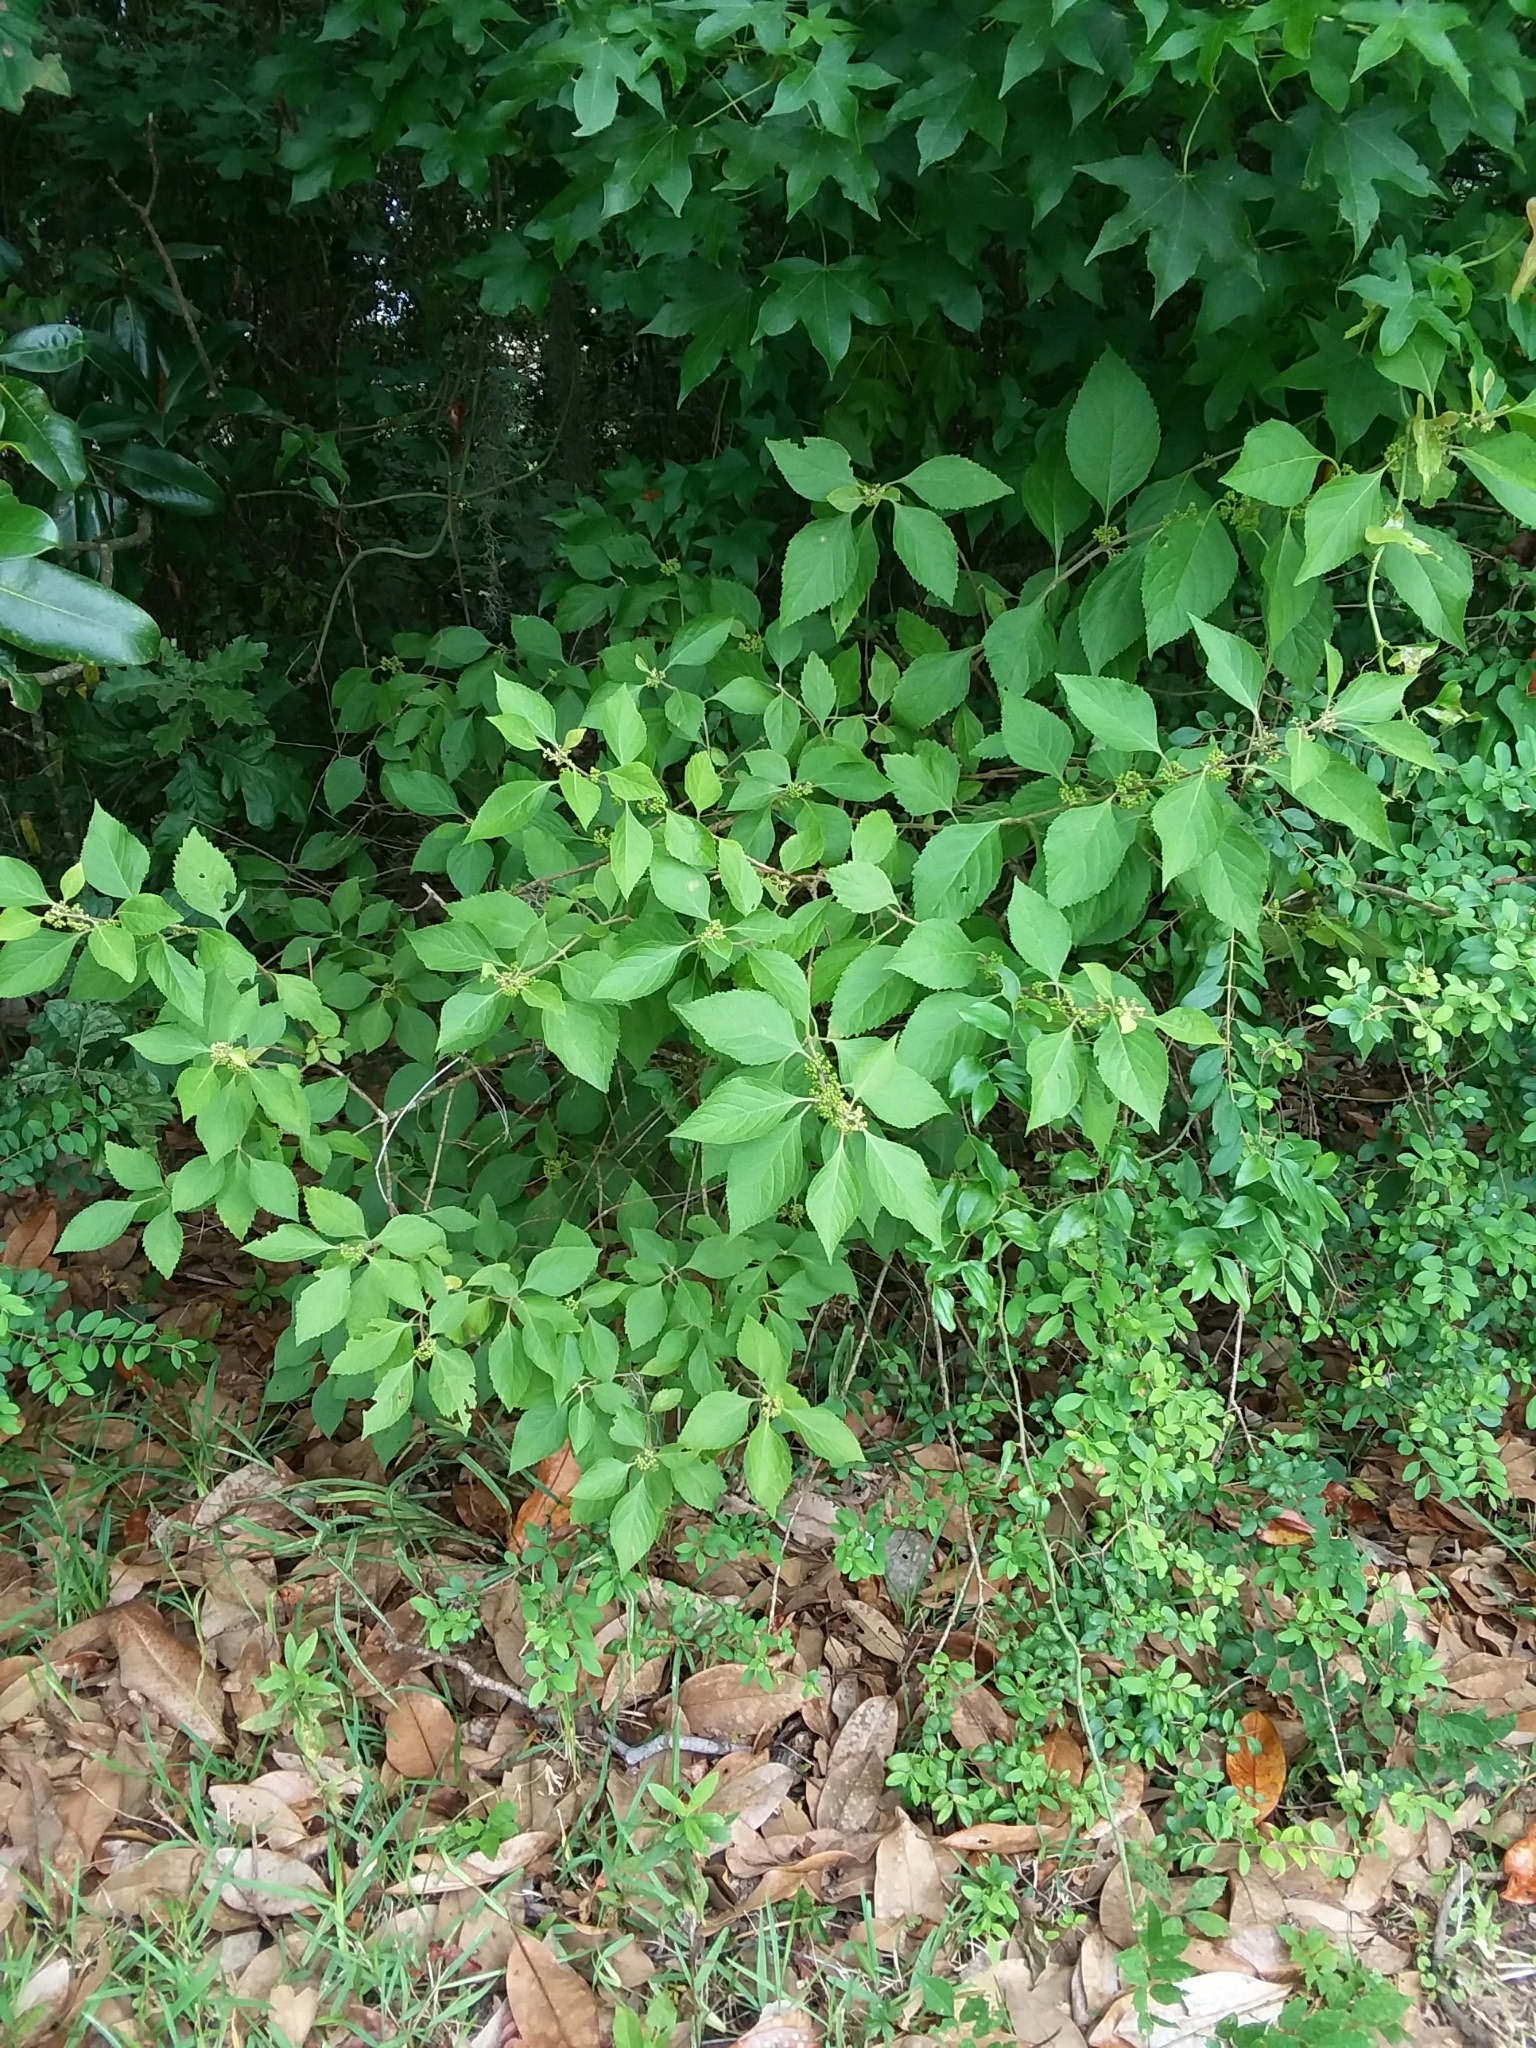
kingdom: Plantae
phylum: Tracheophyta
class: Magnoliopsida
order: Lamiales
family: Lamiaceae
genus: Callicarpa
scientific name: Callicarpa americana
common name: American beautyberry
